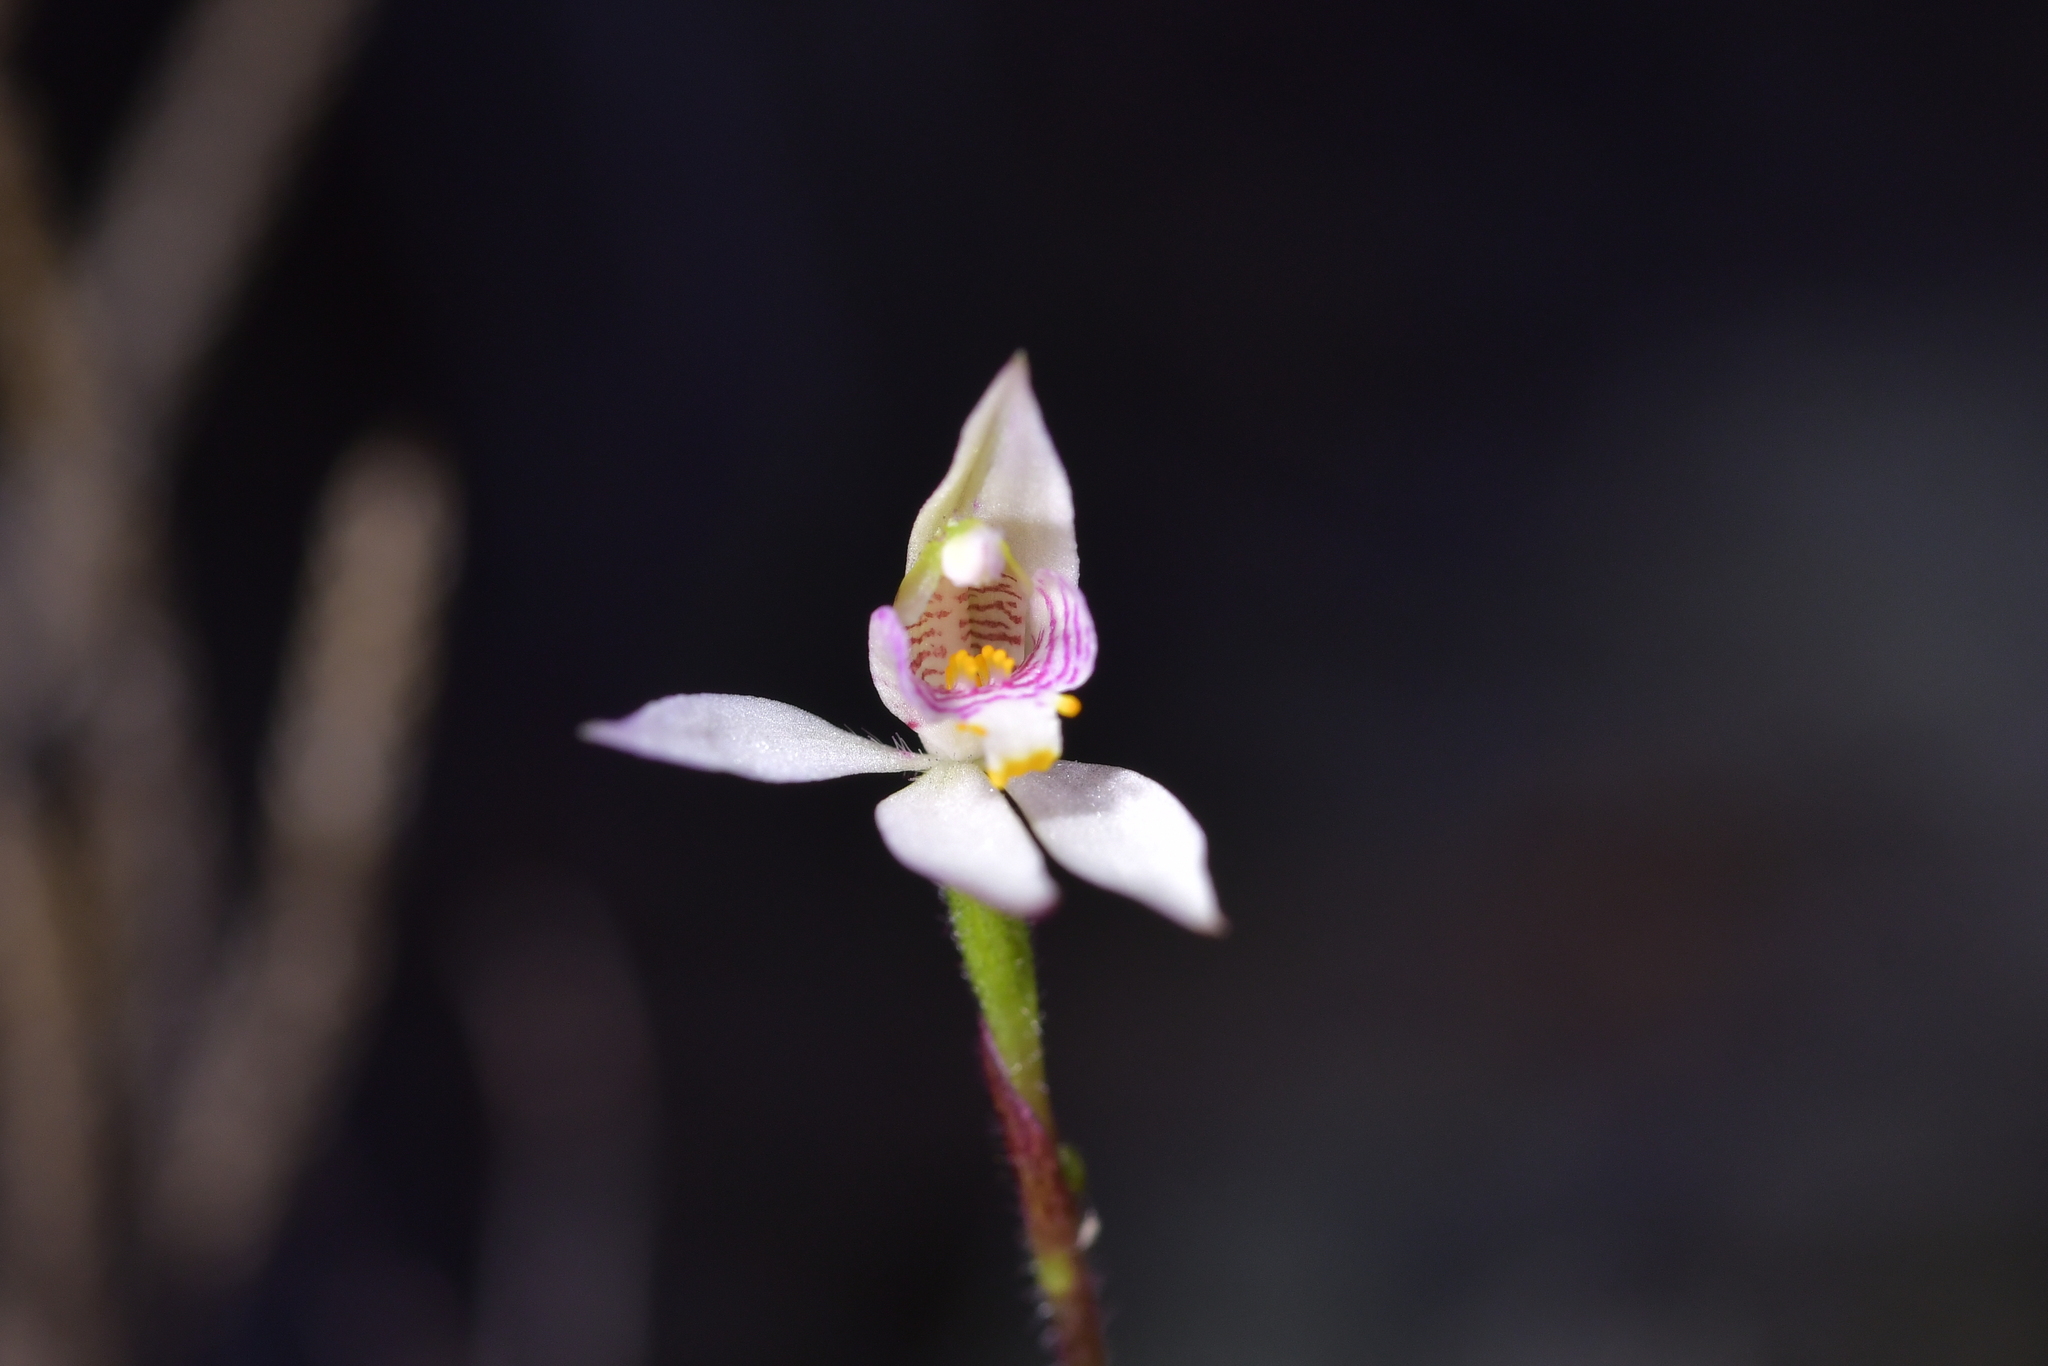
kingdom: Plantae
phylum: Tracheophyta
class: Liliopsida
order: Asparagales
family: Orchidaceae
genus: Caladenia
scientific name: Caladenia alata
